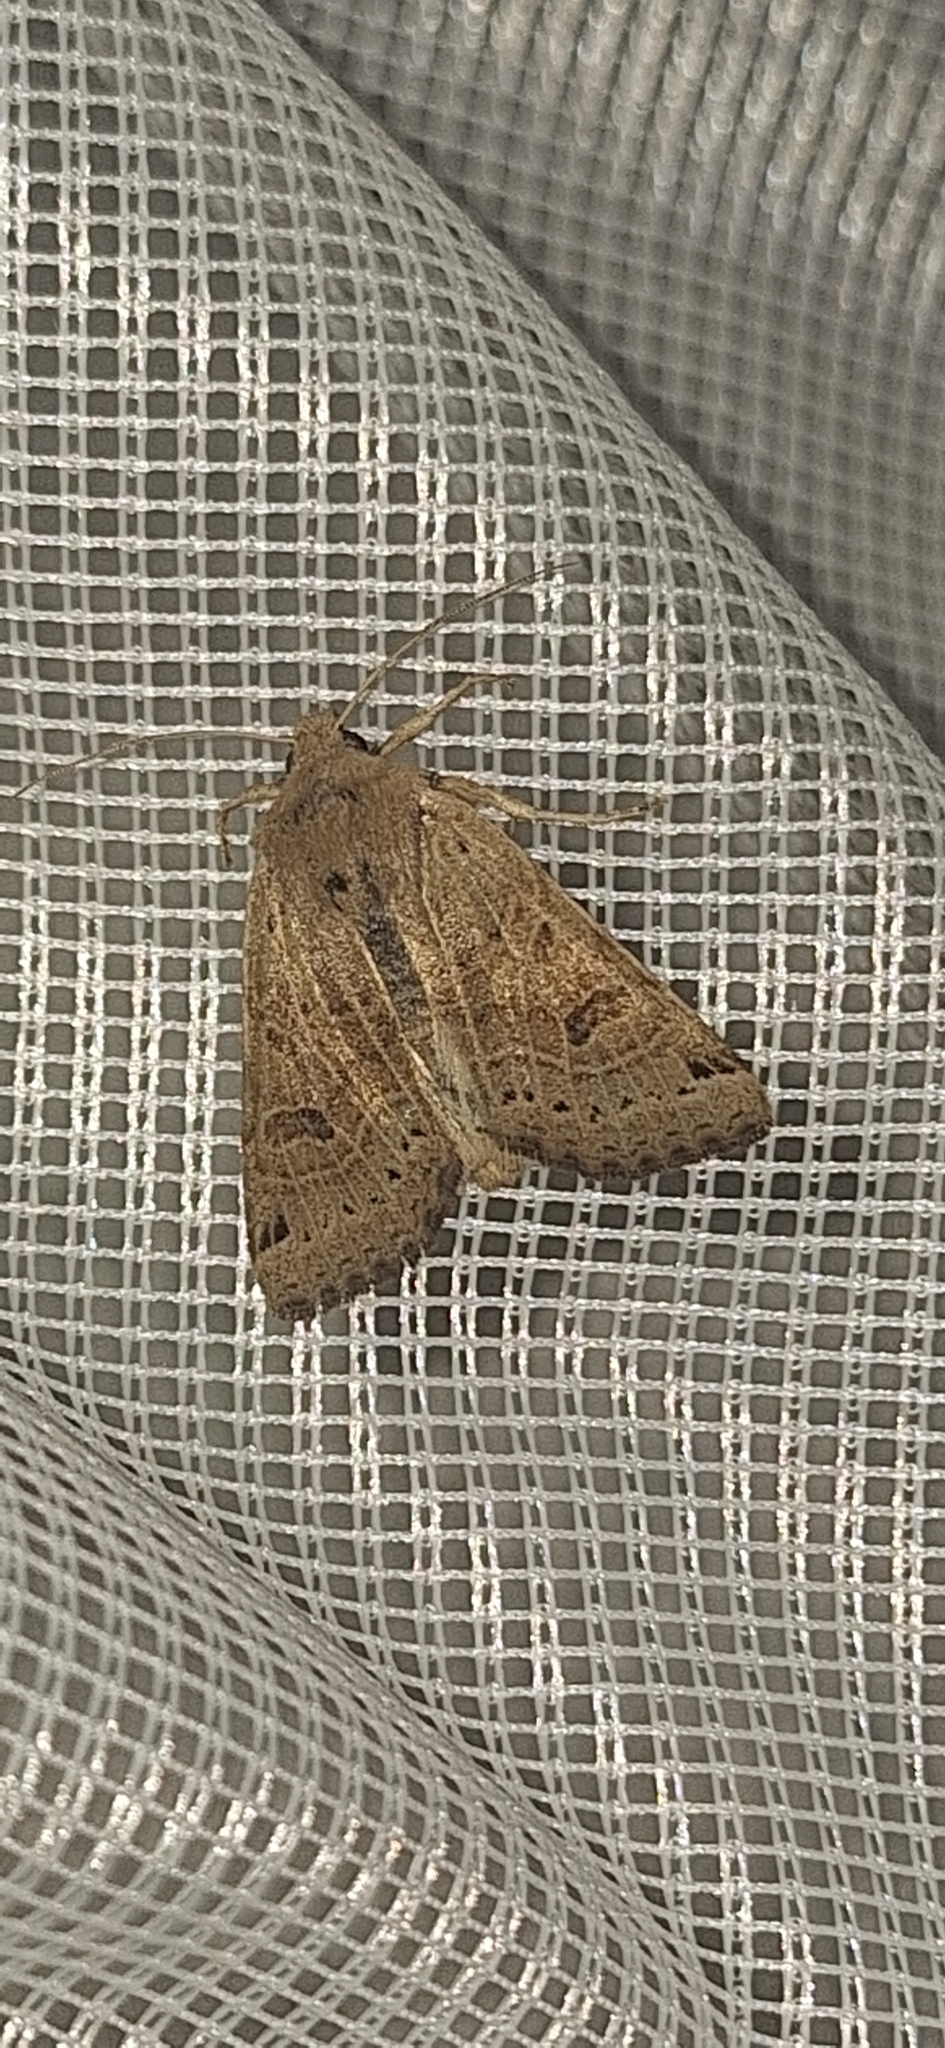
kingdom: Animalia
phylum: Arthropoda
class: Insecta
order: Lepidoptera
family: Noctuidae
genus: Agrochola
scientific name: Agrochola lunosa
